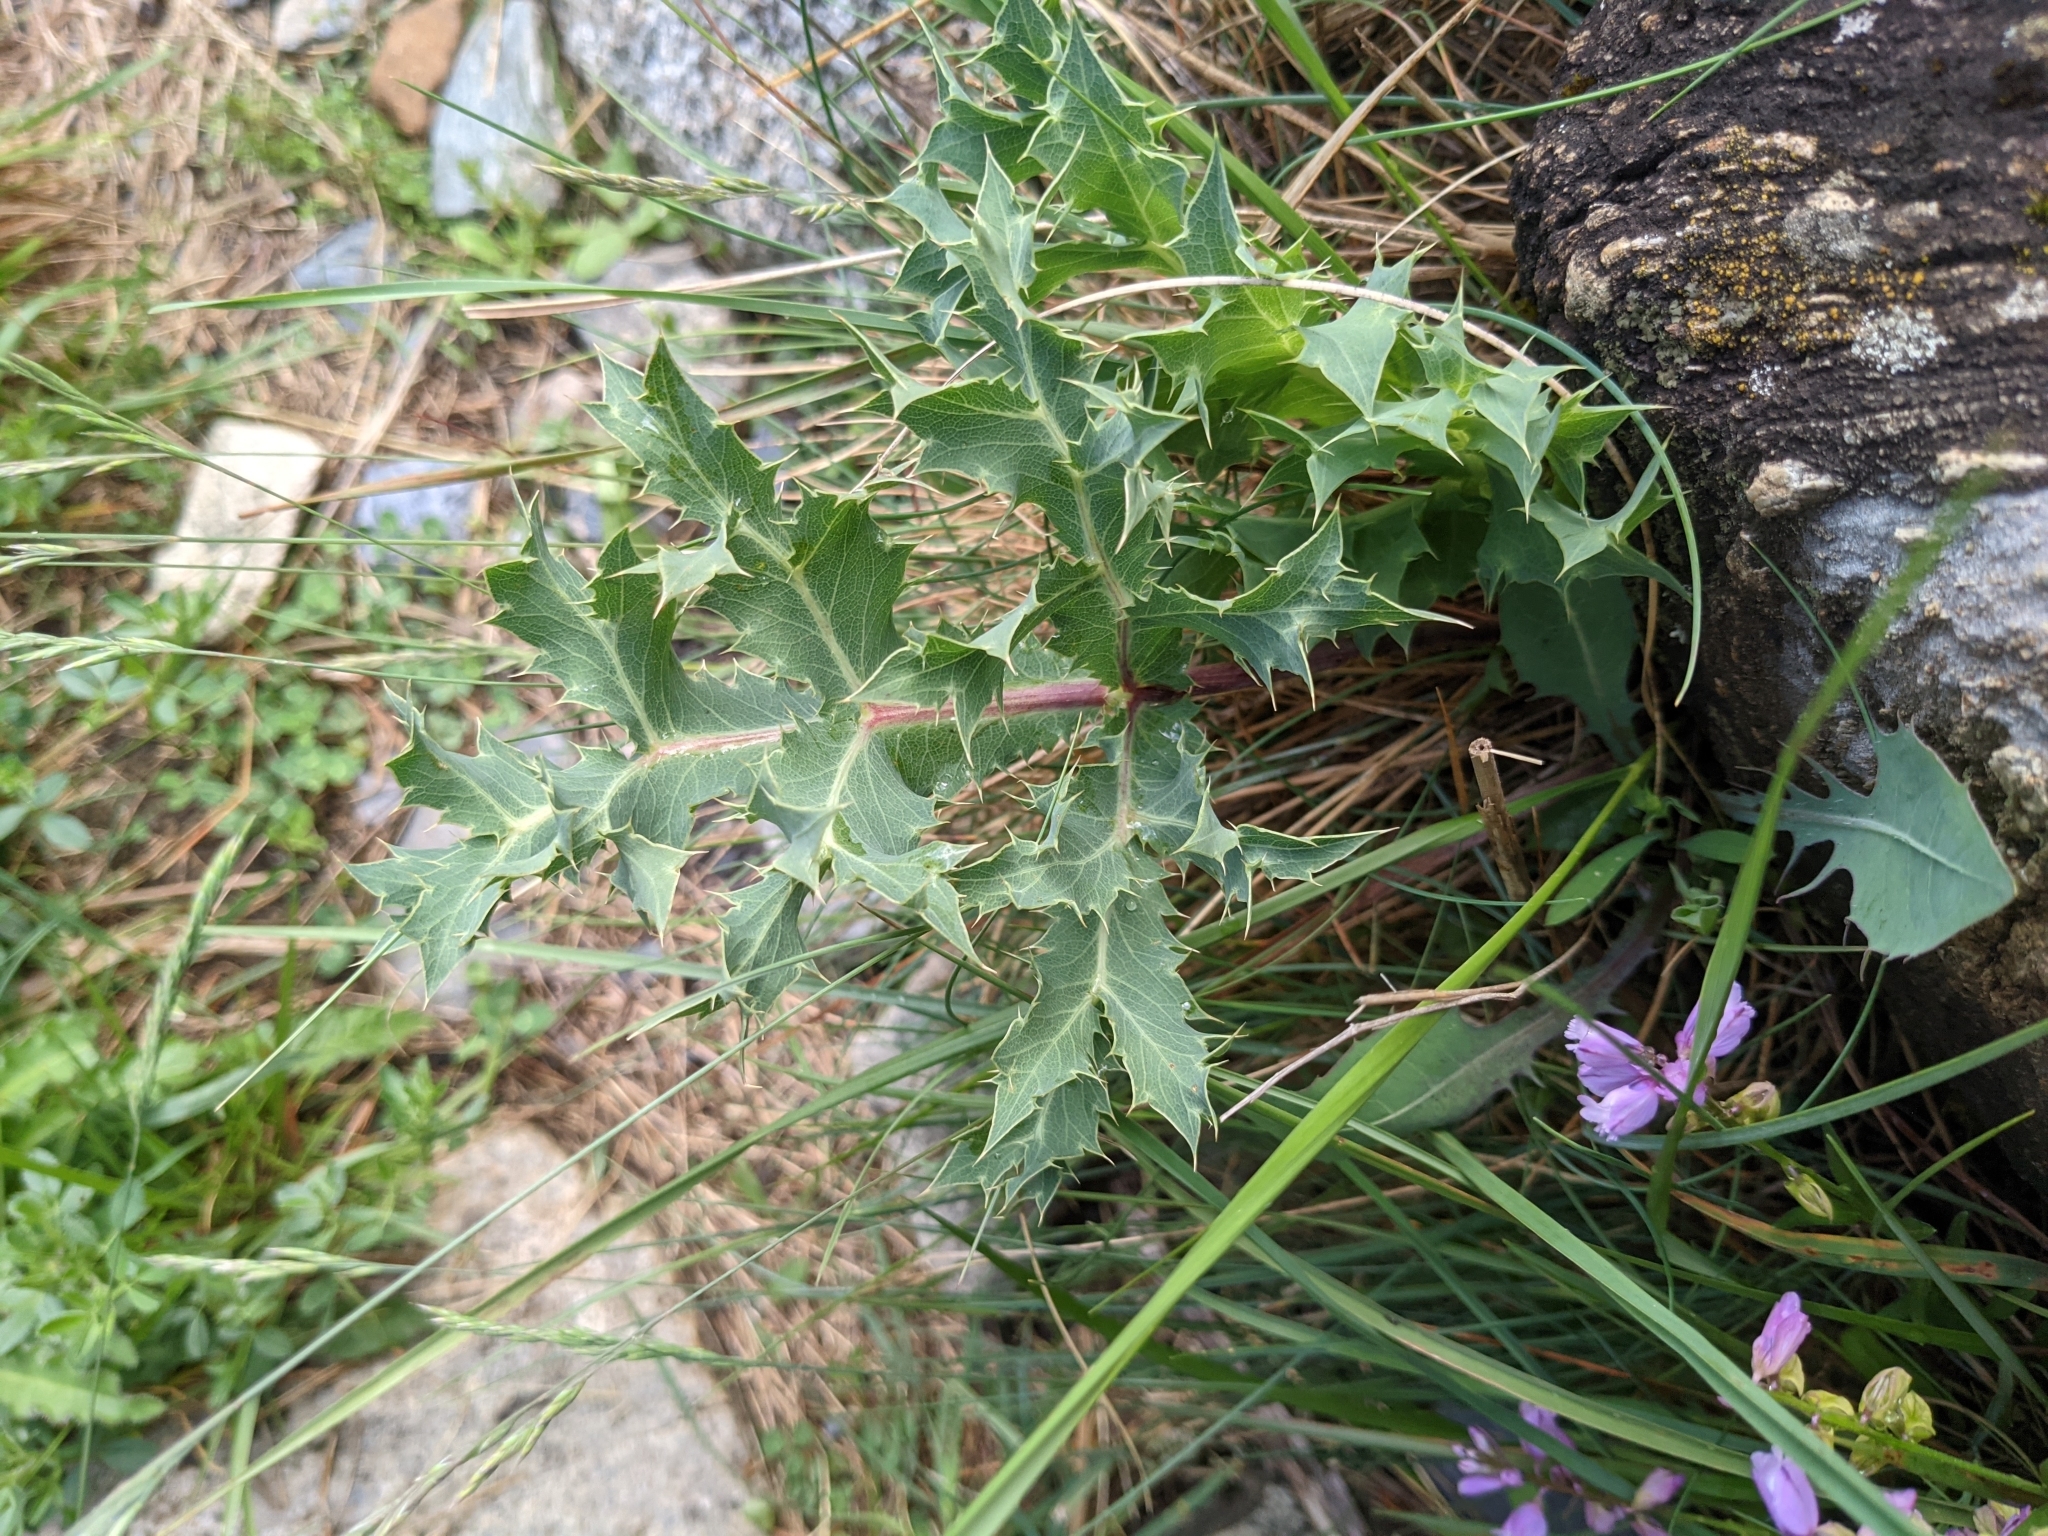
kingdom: Plantae
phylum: Tracheophyta
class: Magnoliopsida
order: Apiales
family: Apiaceae
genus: Eryngium
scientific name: Eryngium campestre
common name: Field eryngo
